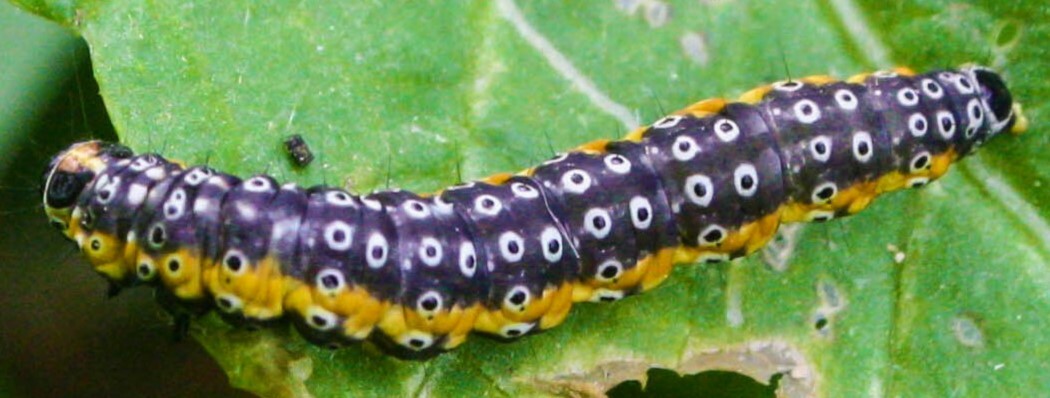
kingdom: Animalia
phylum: Arthropoda
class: Insecta
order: Lepidoptera
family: Depressariidae
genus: Depressaria
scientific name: Depressaria radiella
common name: Parsnip moth
